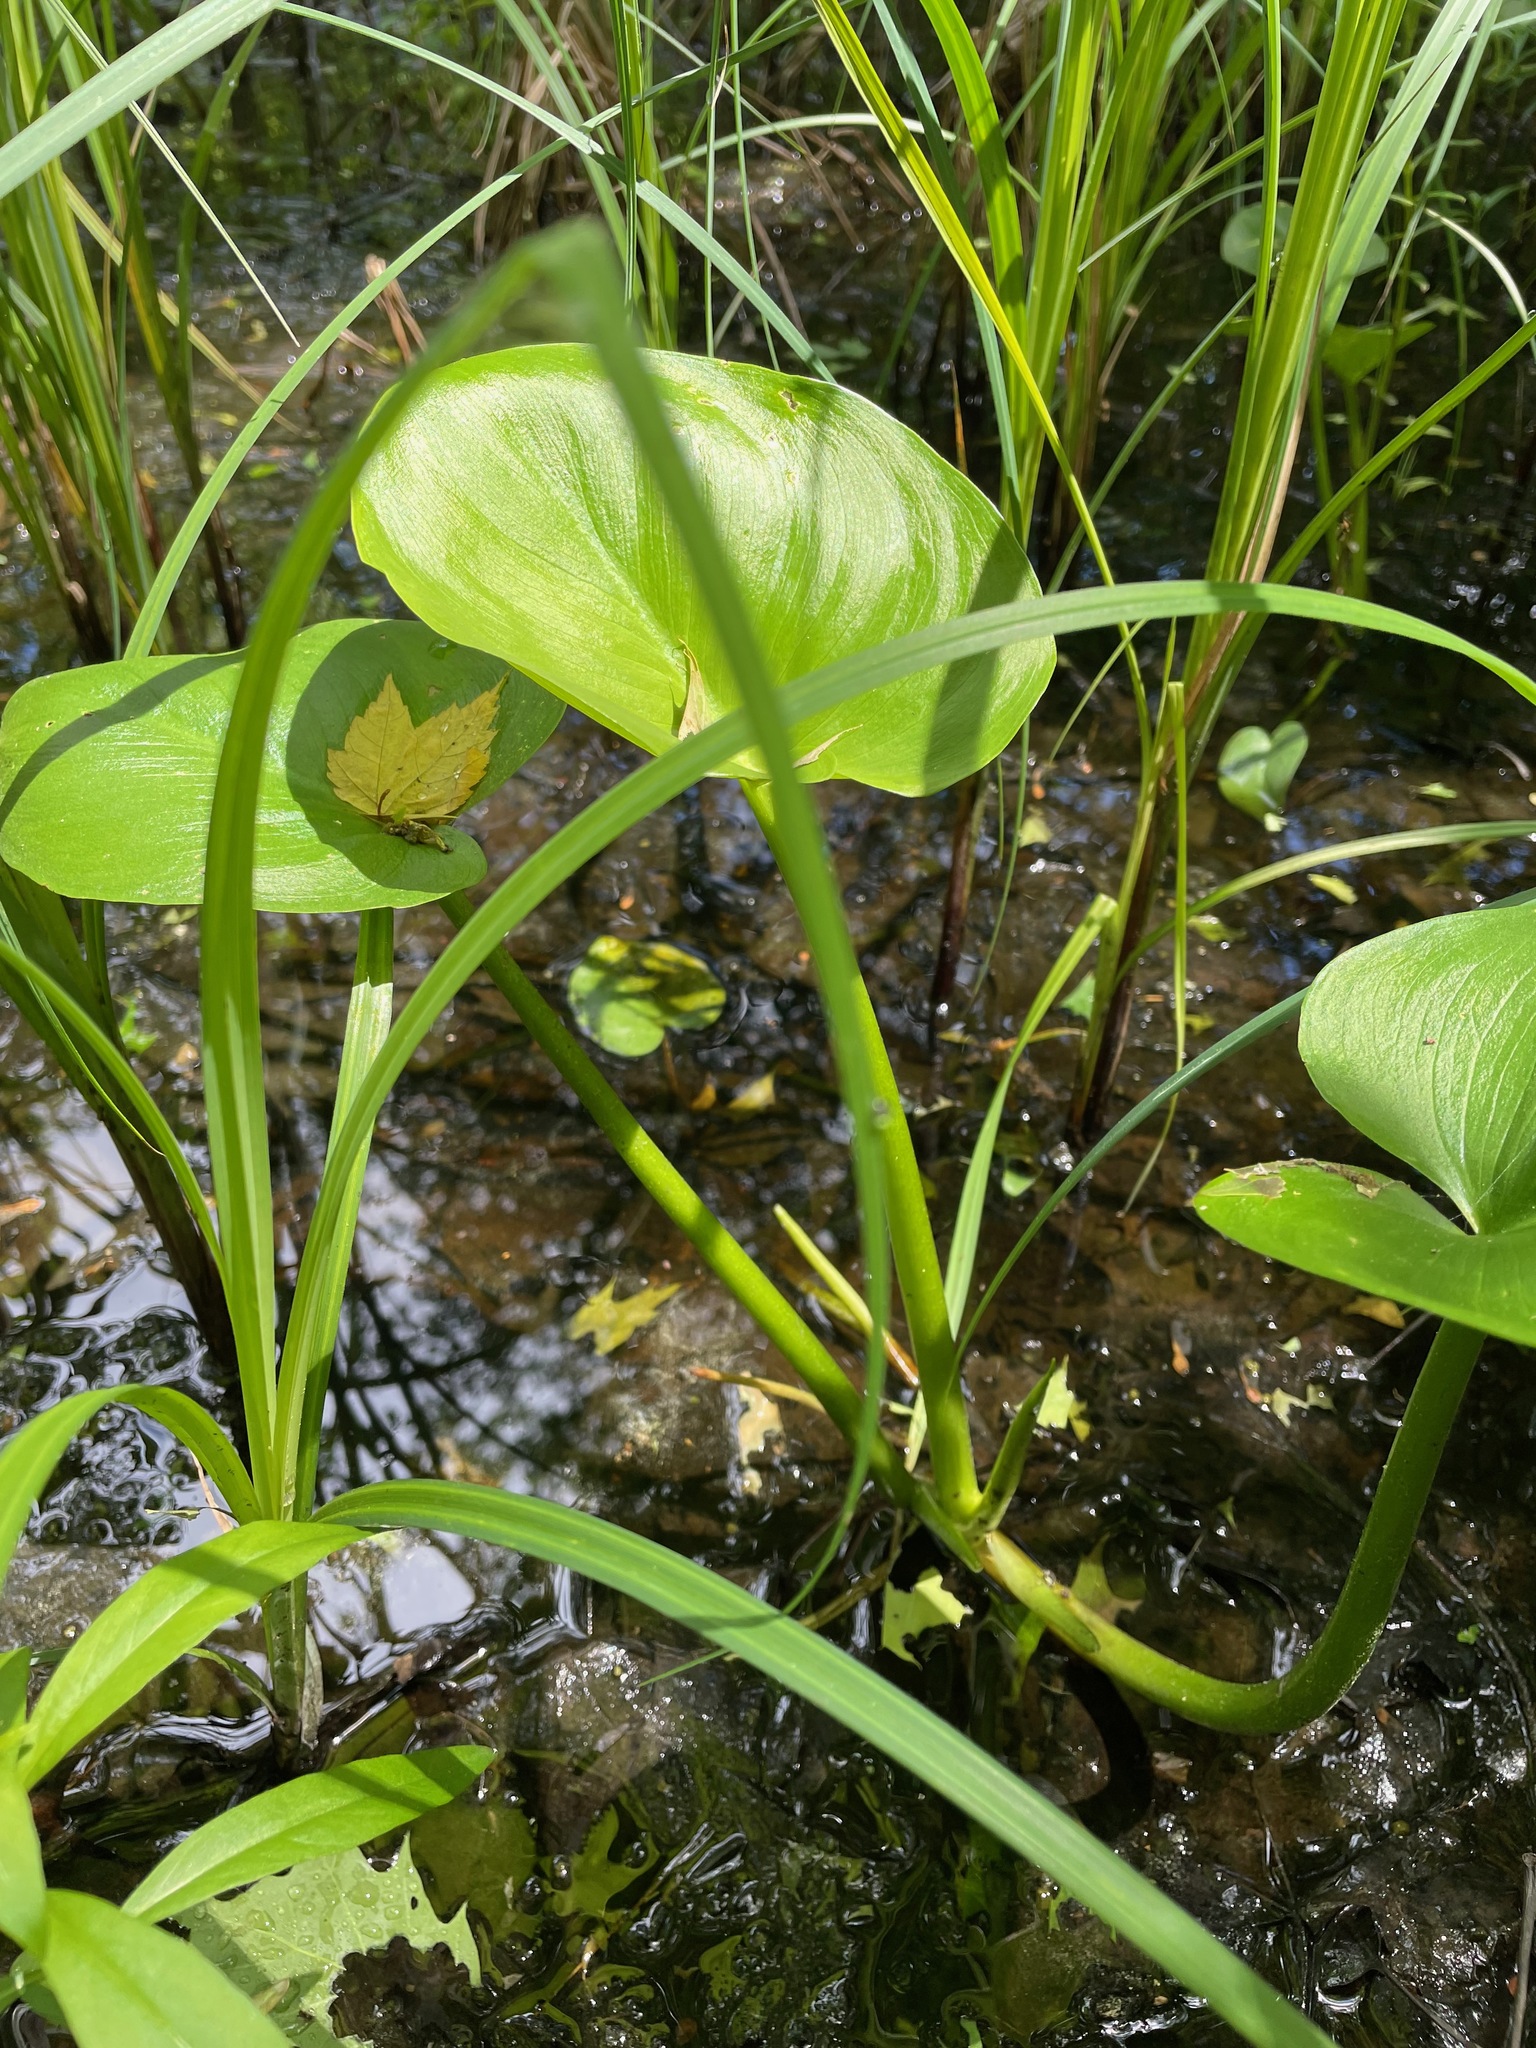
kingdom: Plantae
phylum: Tracheophyta
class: Liliopsida
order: Alismatales
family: Araceae
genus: Calla
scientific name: Calla palustris
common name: Bog arum
